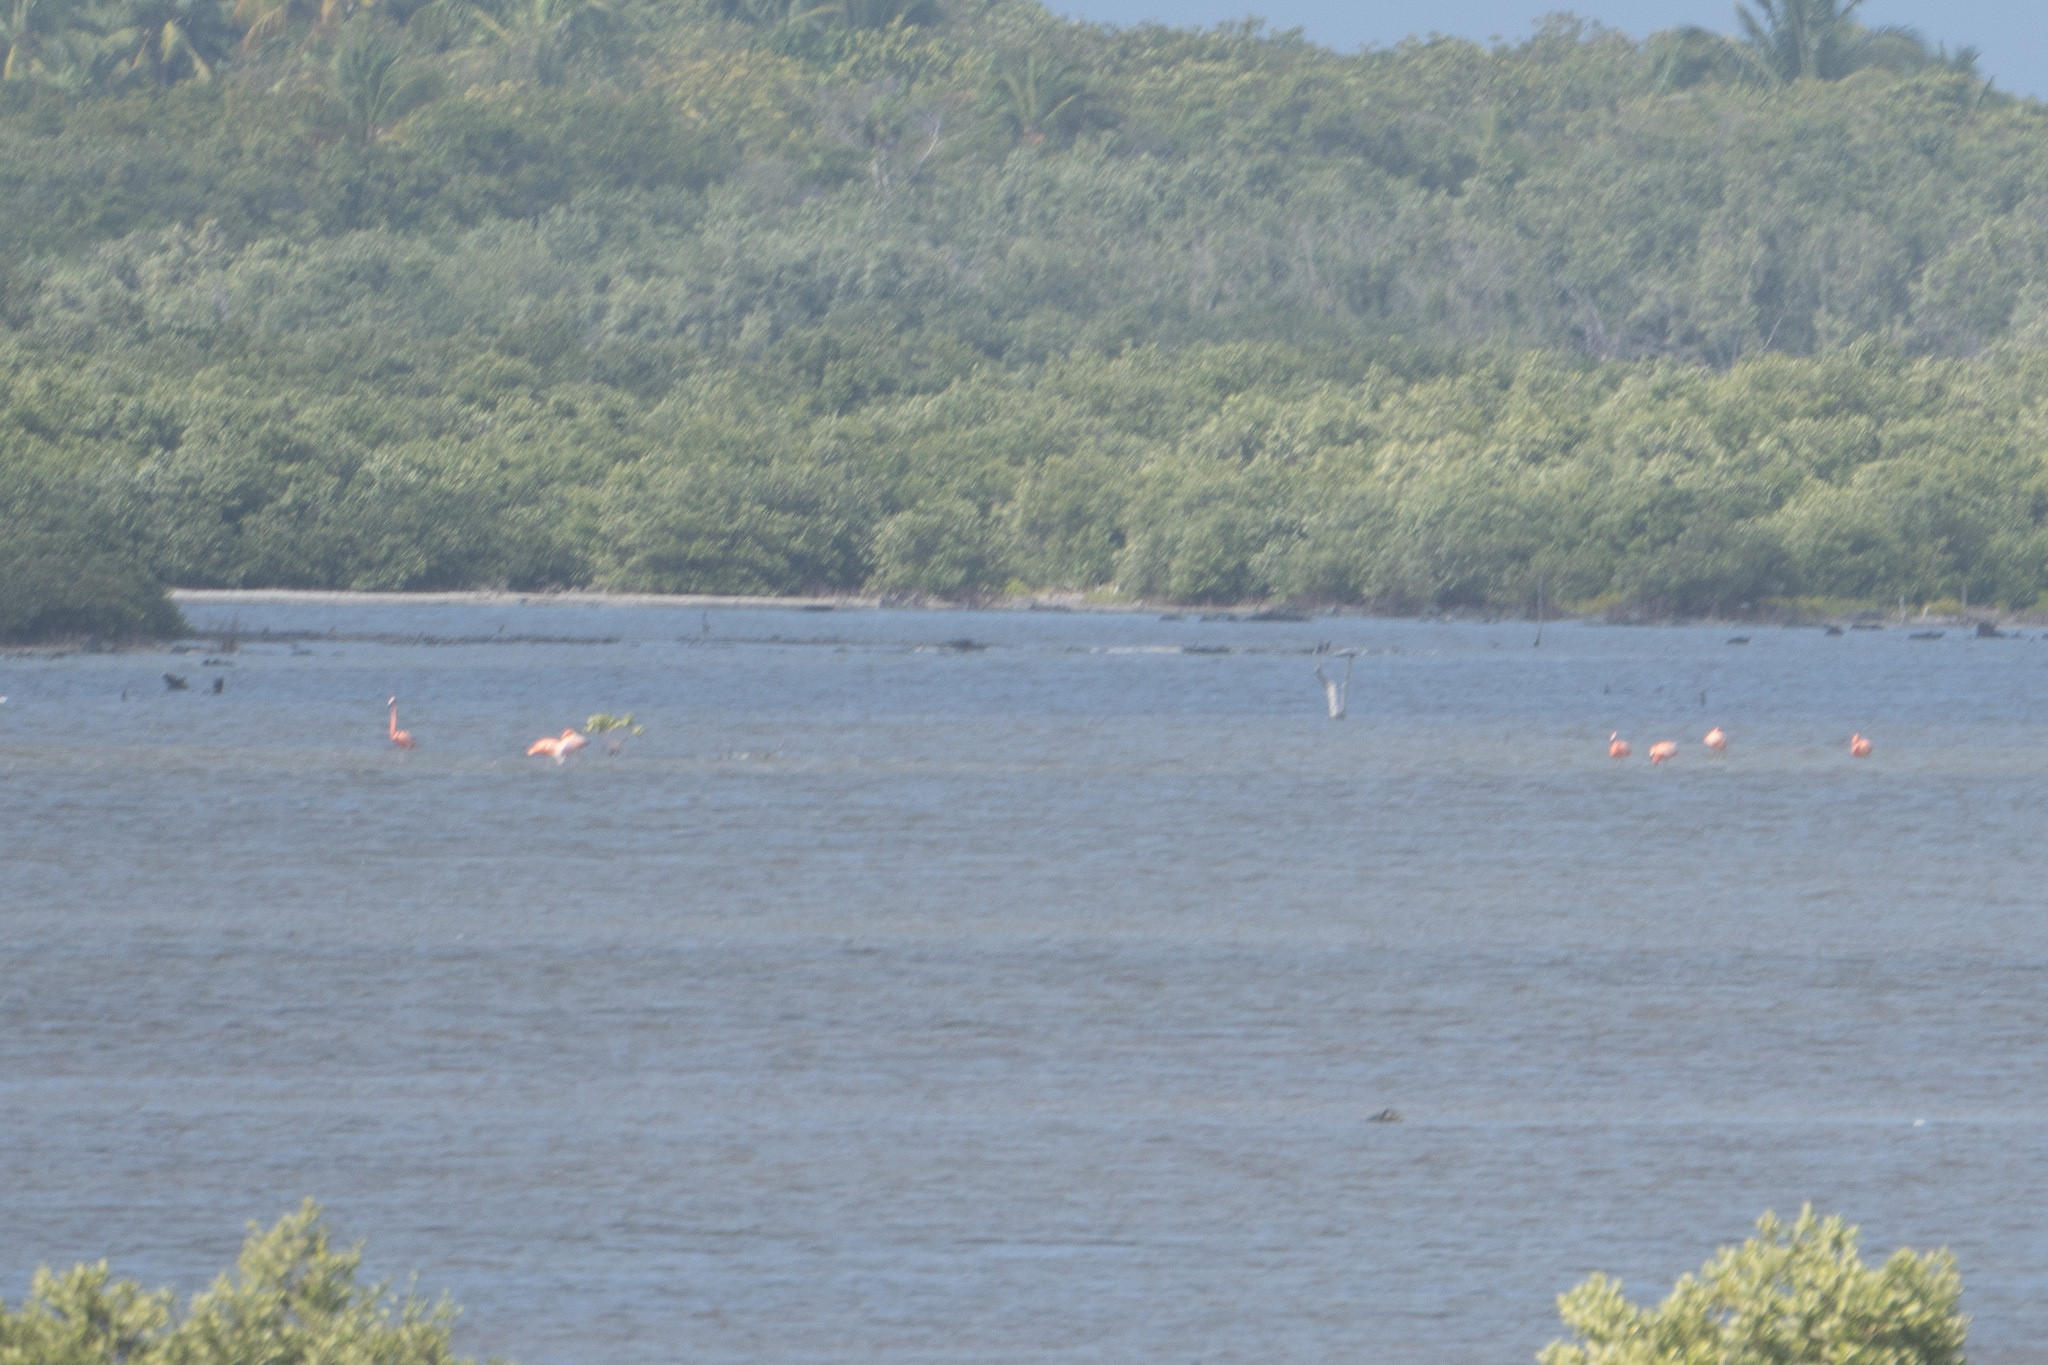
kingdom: Animalia
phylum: Chordata
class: Aves
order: Phoenicopteriformes
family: Phoenicopteridae
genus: Phoenicopterus
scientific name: Phoenicopterus ruber
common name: American flamingo
